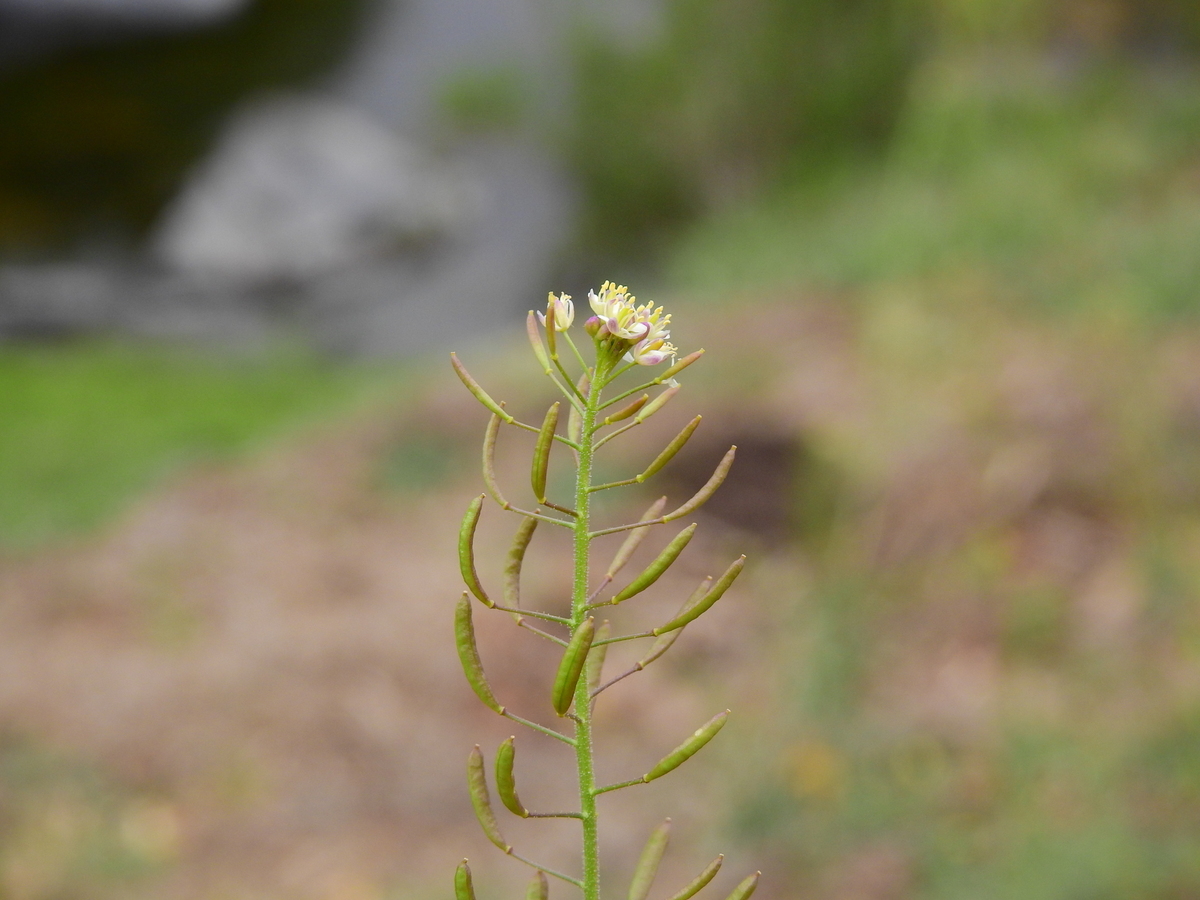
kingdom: Plantae
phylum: Tracheophyta
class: Magnoliopsida
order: Brassicales
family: Brassicaceae
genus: Descurainia
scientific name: Descurainia erodiifolia
